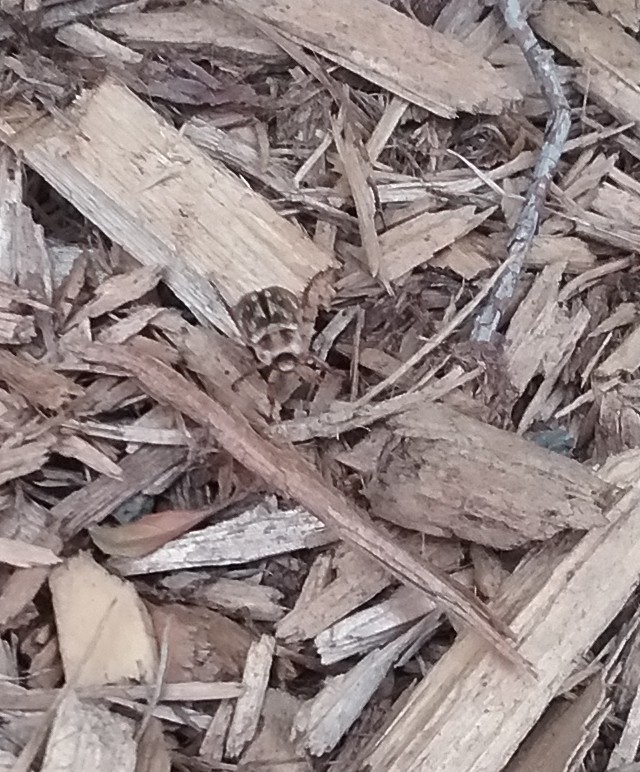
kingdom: Animalia
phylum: Arthropoda
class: Insecta
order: Coleoptera
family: Scarabaeidae
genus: Exomala
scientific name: Exomala orientalis
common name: Oriental beetle
